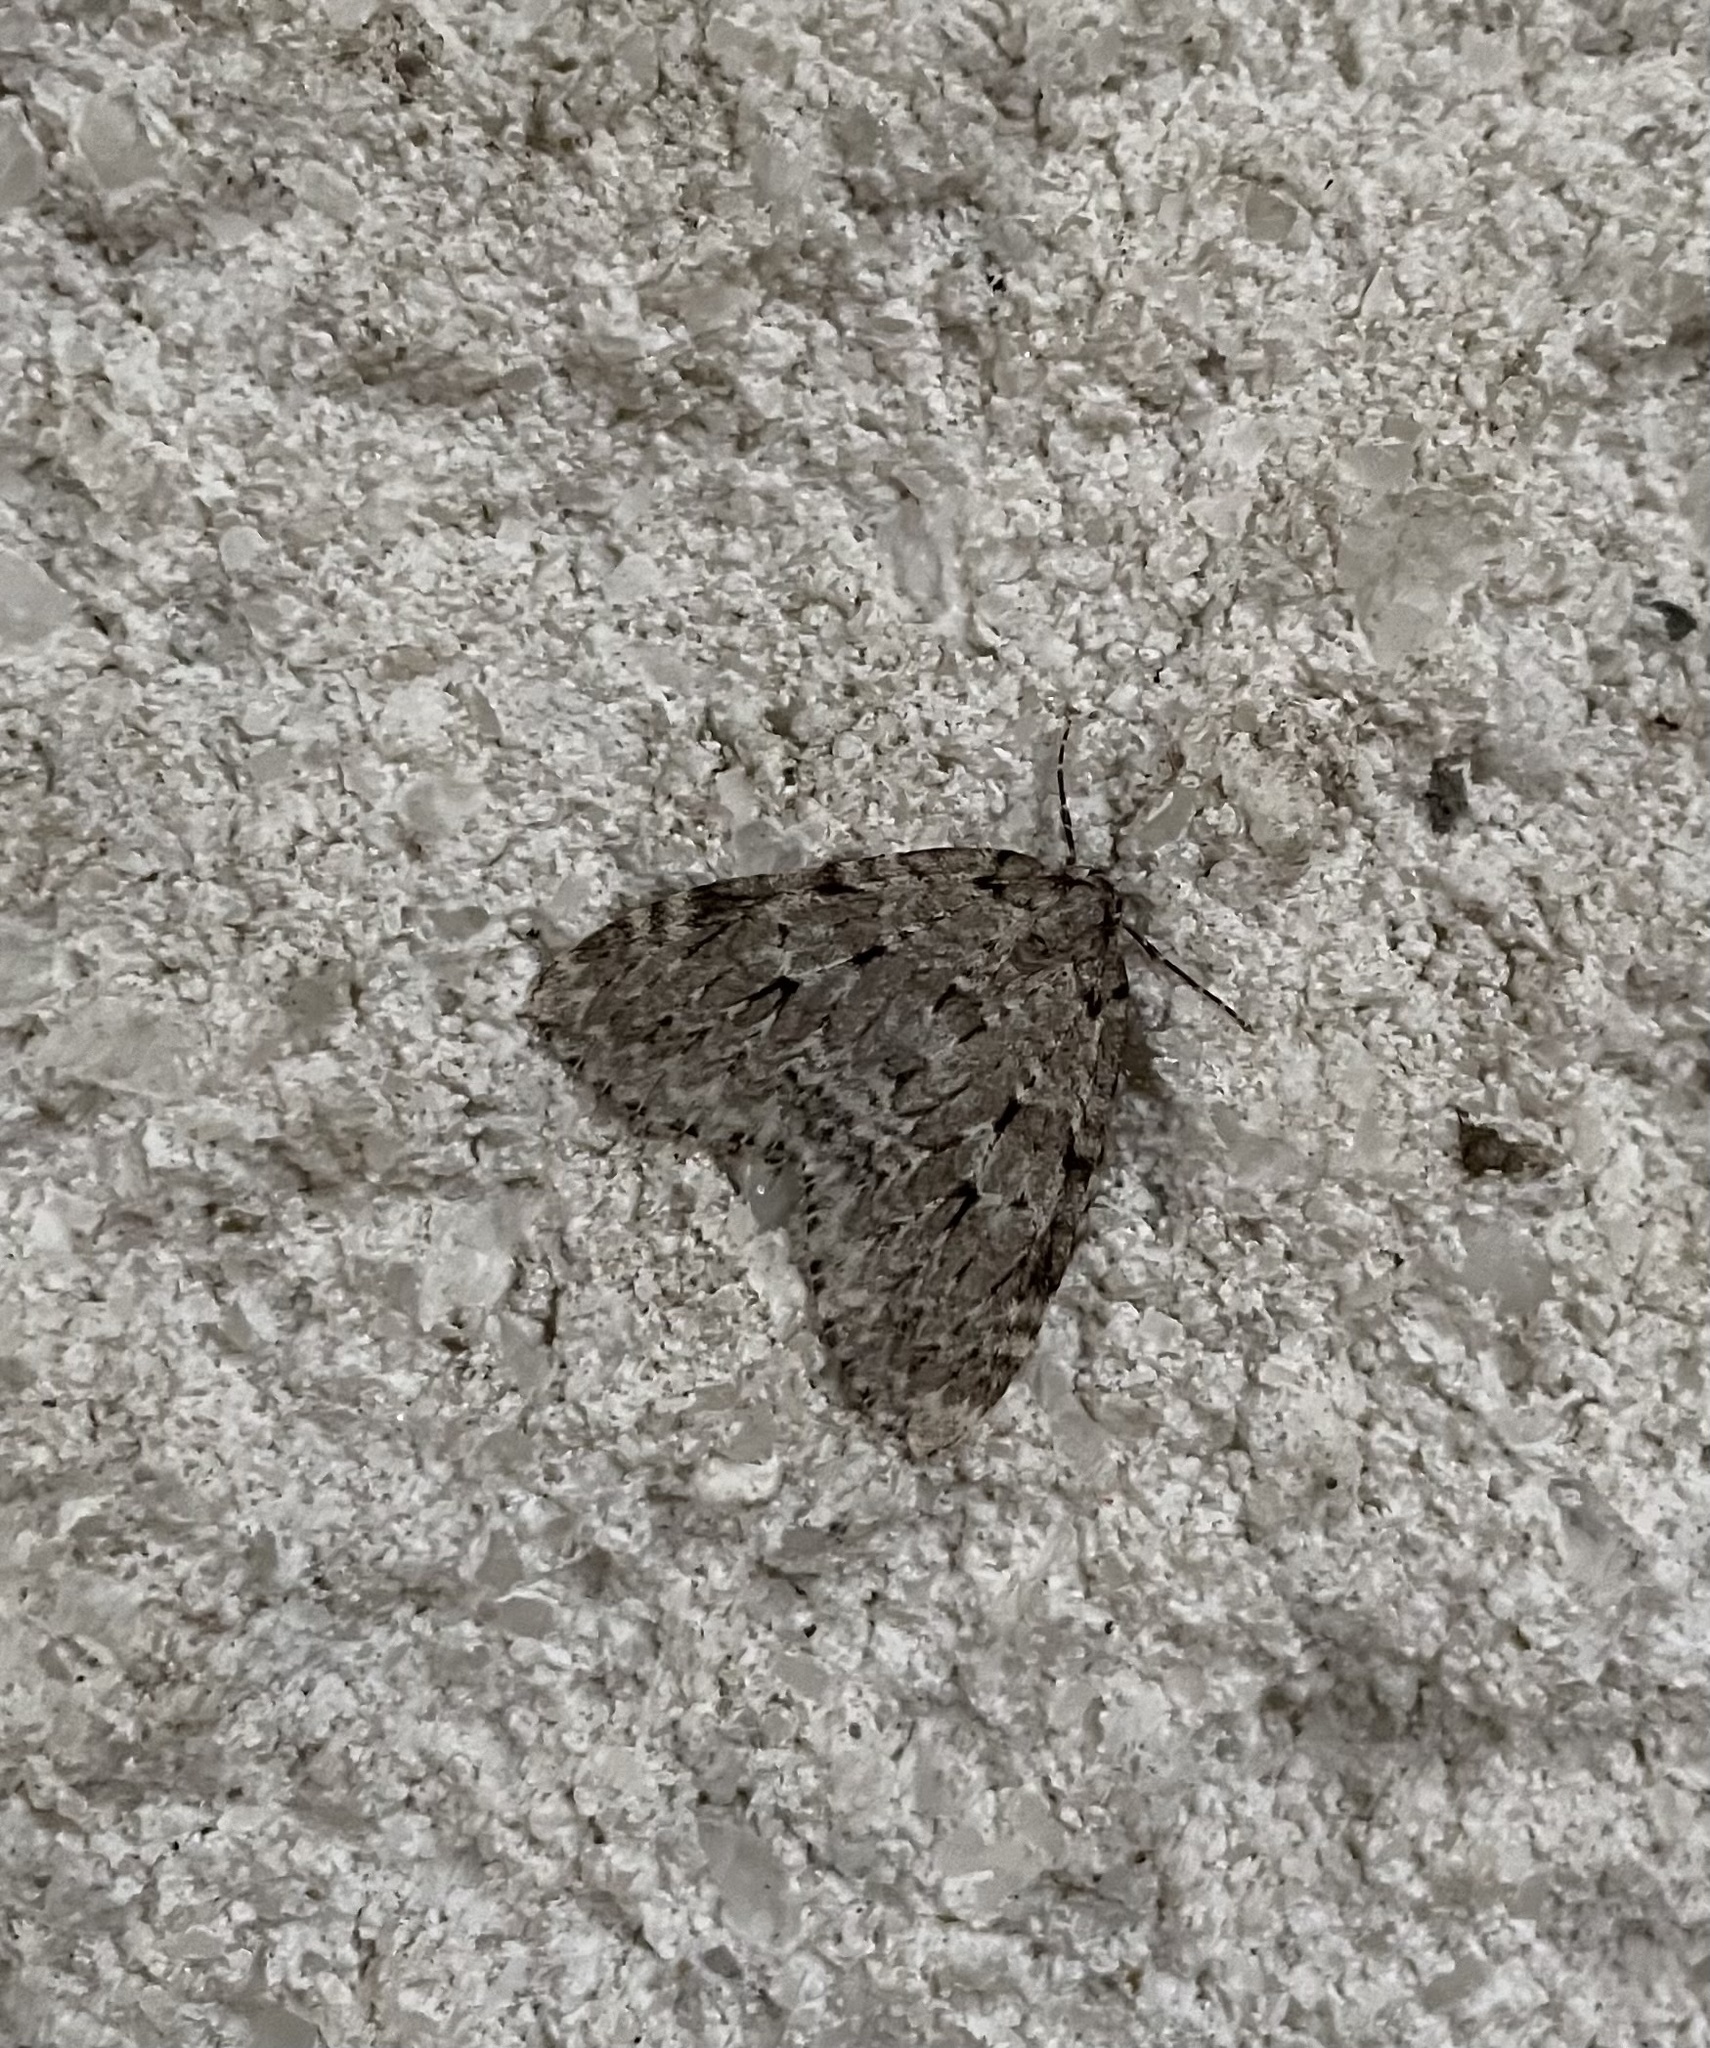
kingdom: Animalia
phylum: Arthropoda
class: Insecta
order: Lepidoptera
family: Geometridae
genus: Epirrita
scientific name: Epirrita autumnata
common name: Autumnal moth
